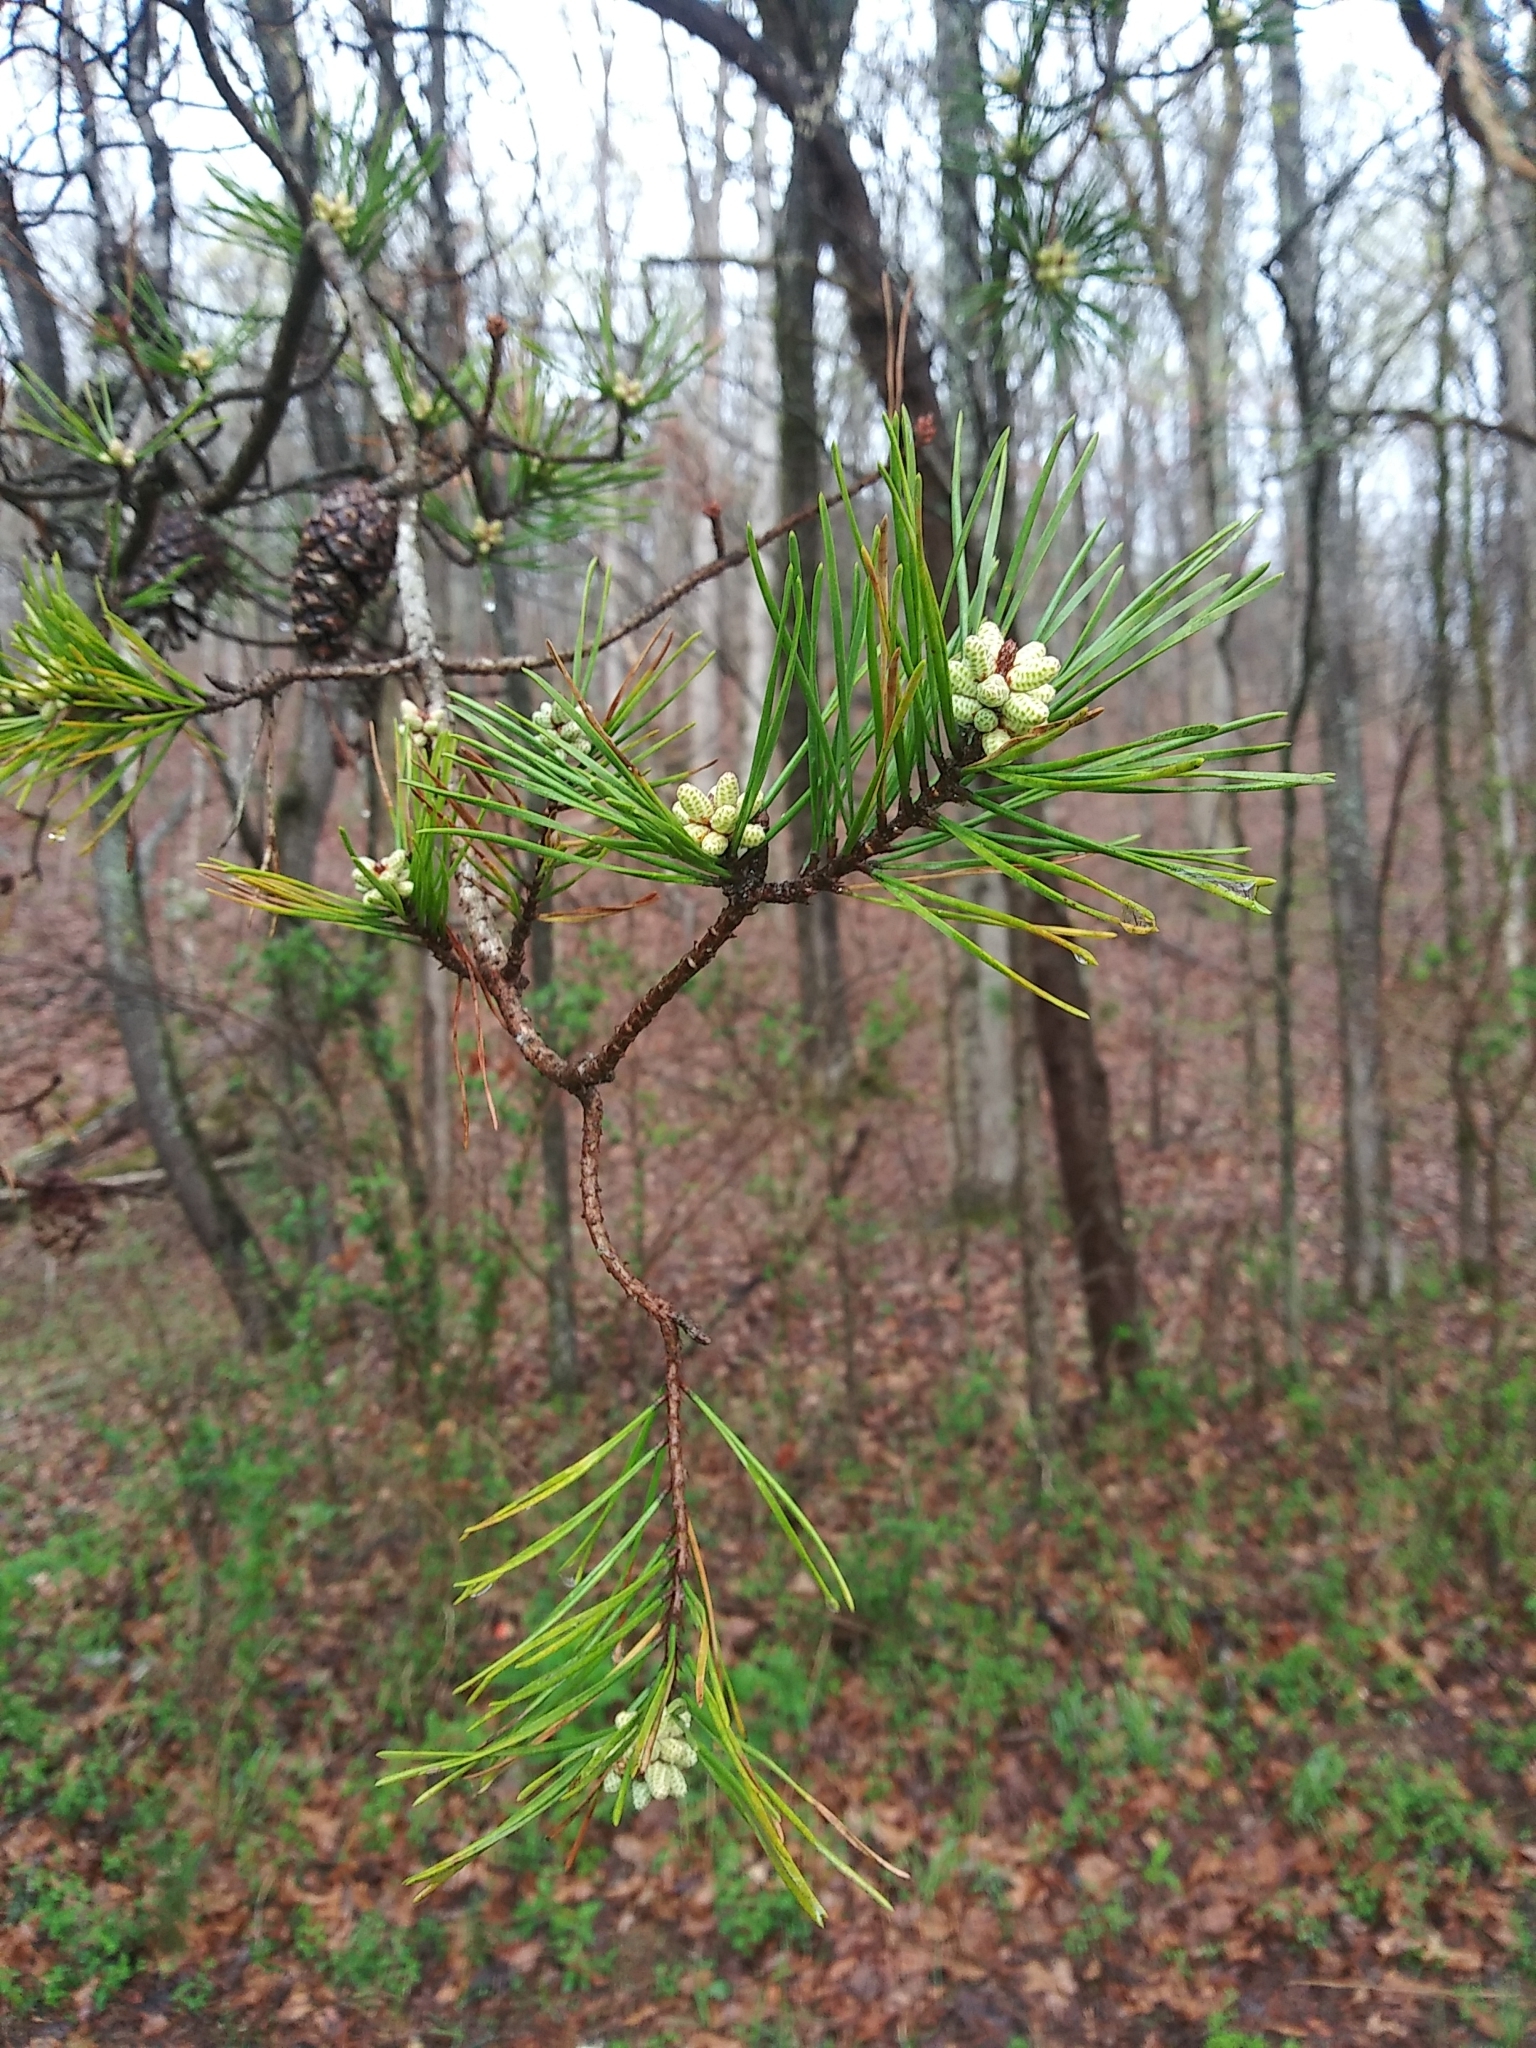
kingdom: Plantae
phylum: Tracheophyta
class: Pinopsida
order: Pinales
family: Pinaceae
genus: Pinus
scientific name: Pinus virginiana
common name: Scrub pine
